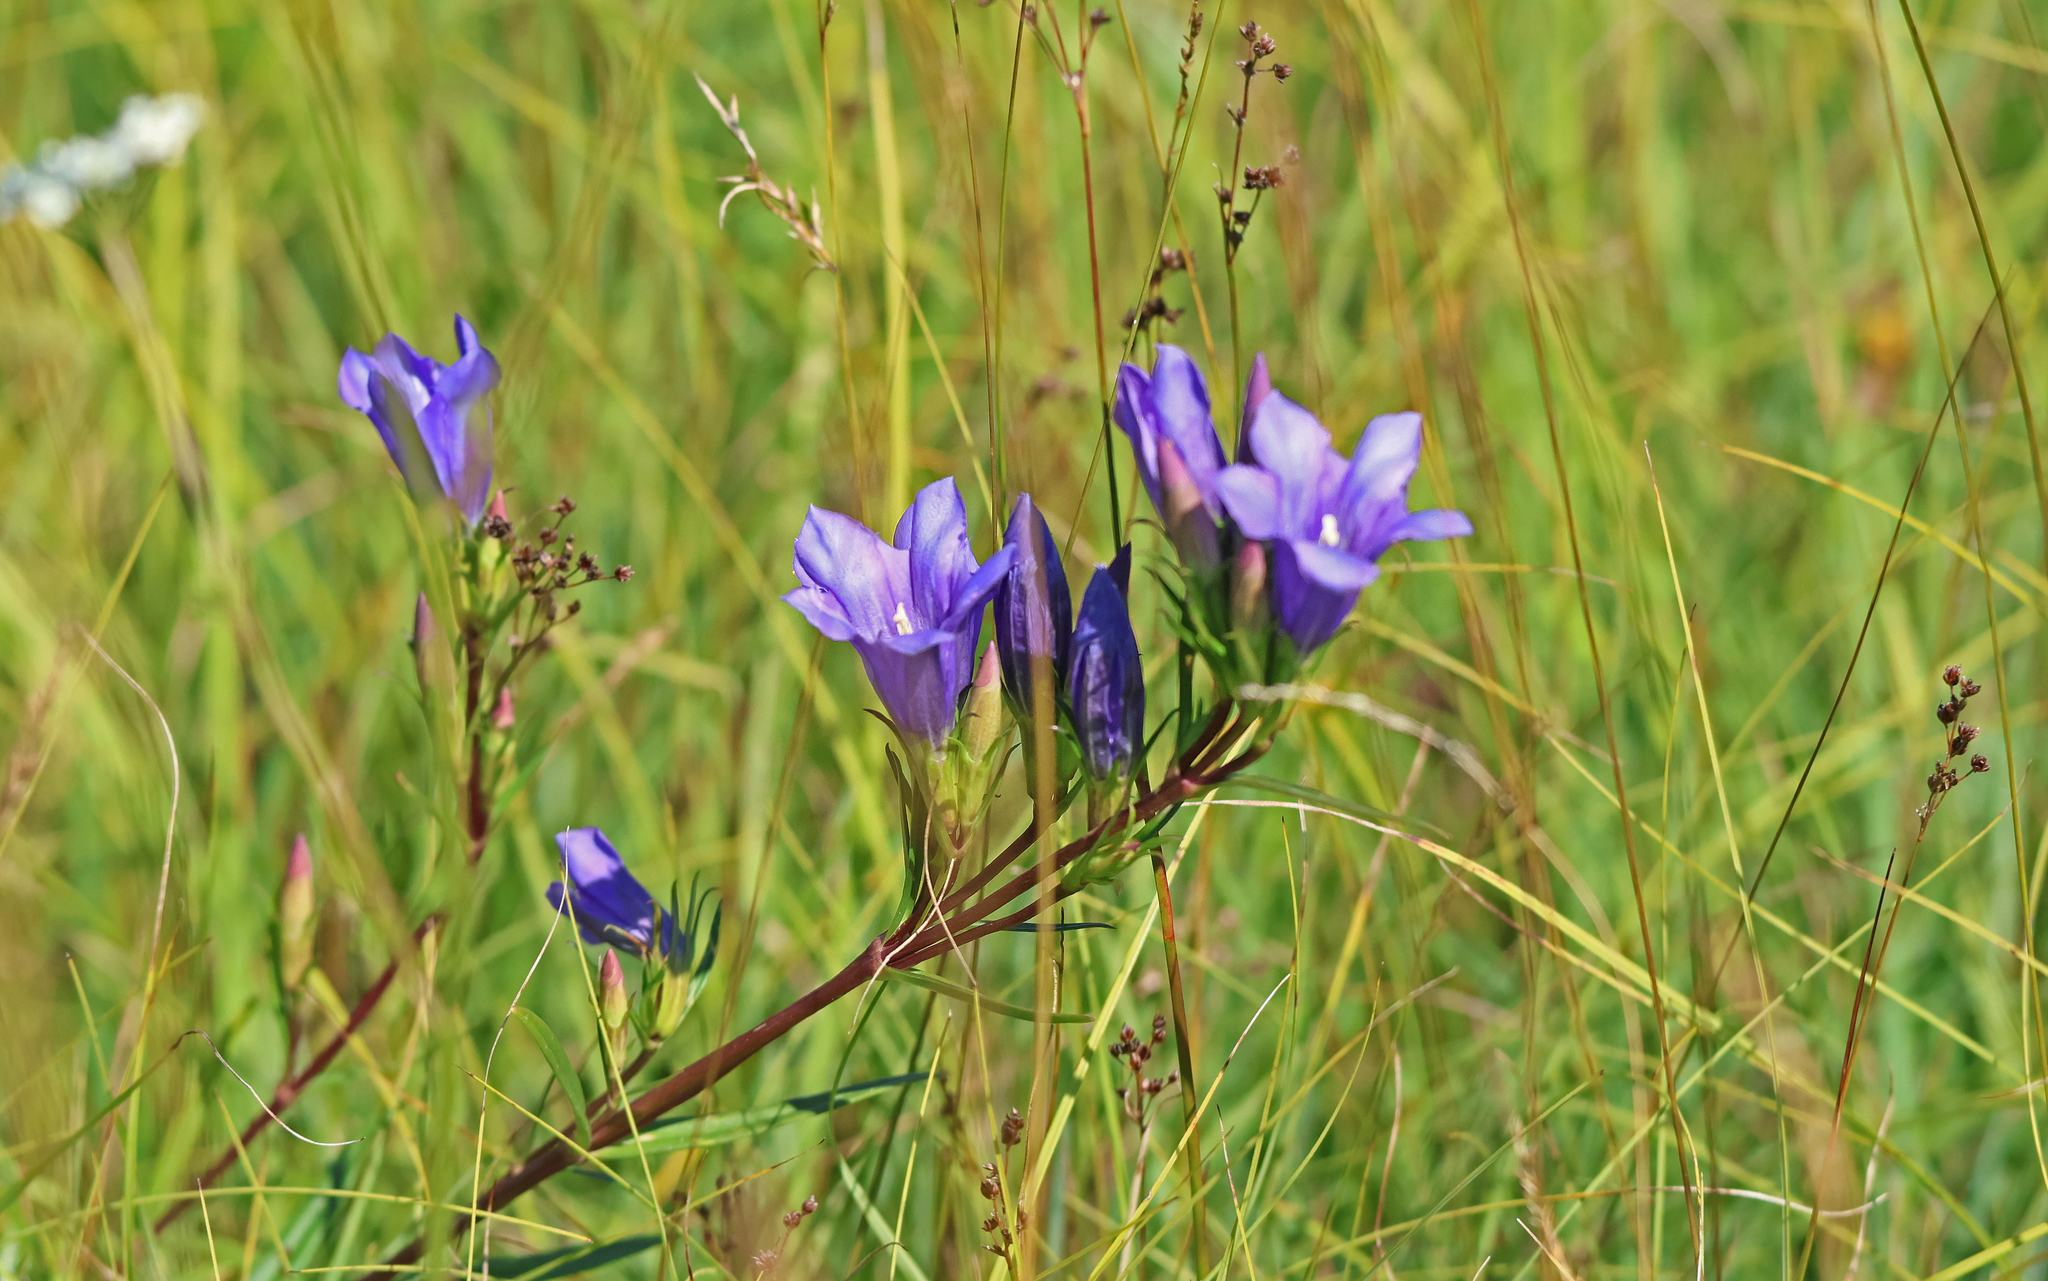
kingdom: Plantae
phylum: Tracheophyta
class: Magnoliopsida
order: Gentianales
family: Gentianaceae
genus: Gentiana
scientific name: Gentiana pneumonanthe
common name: Marsh gentian
